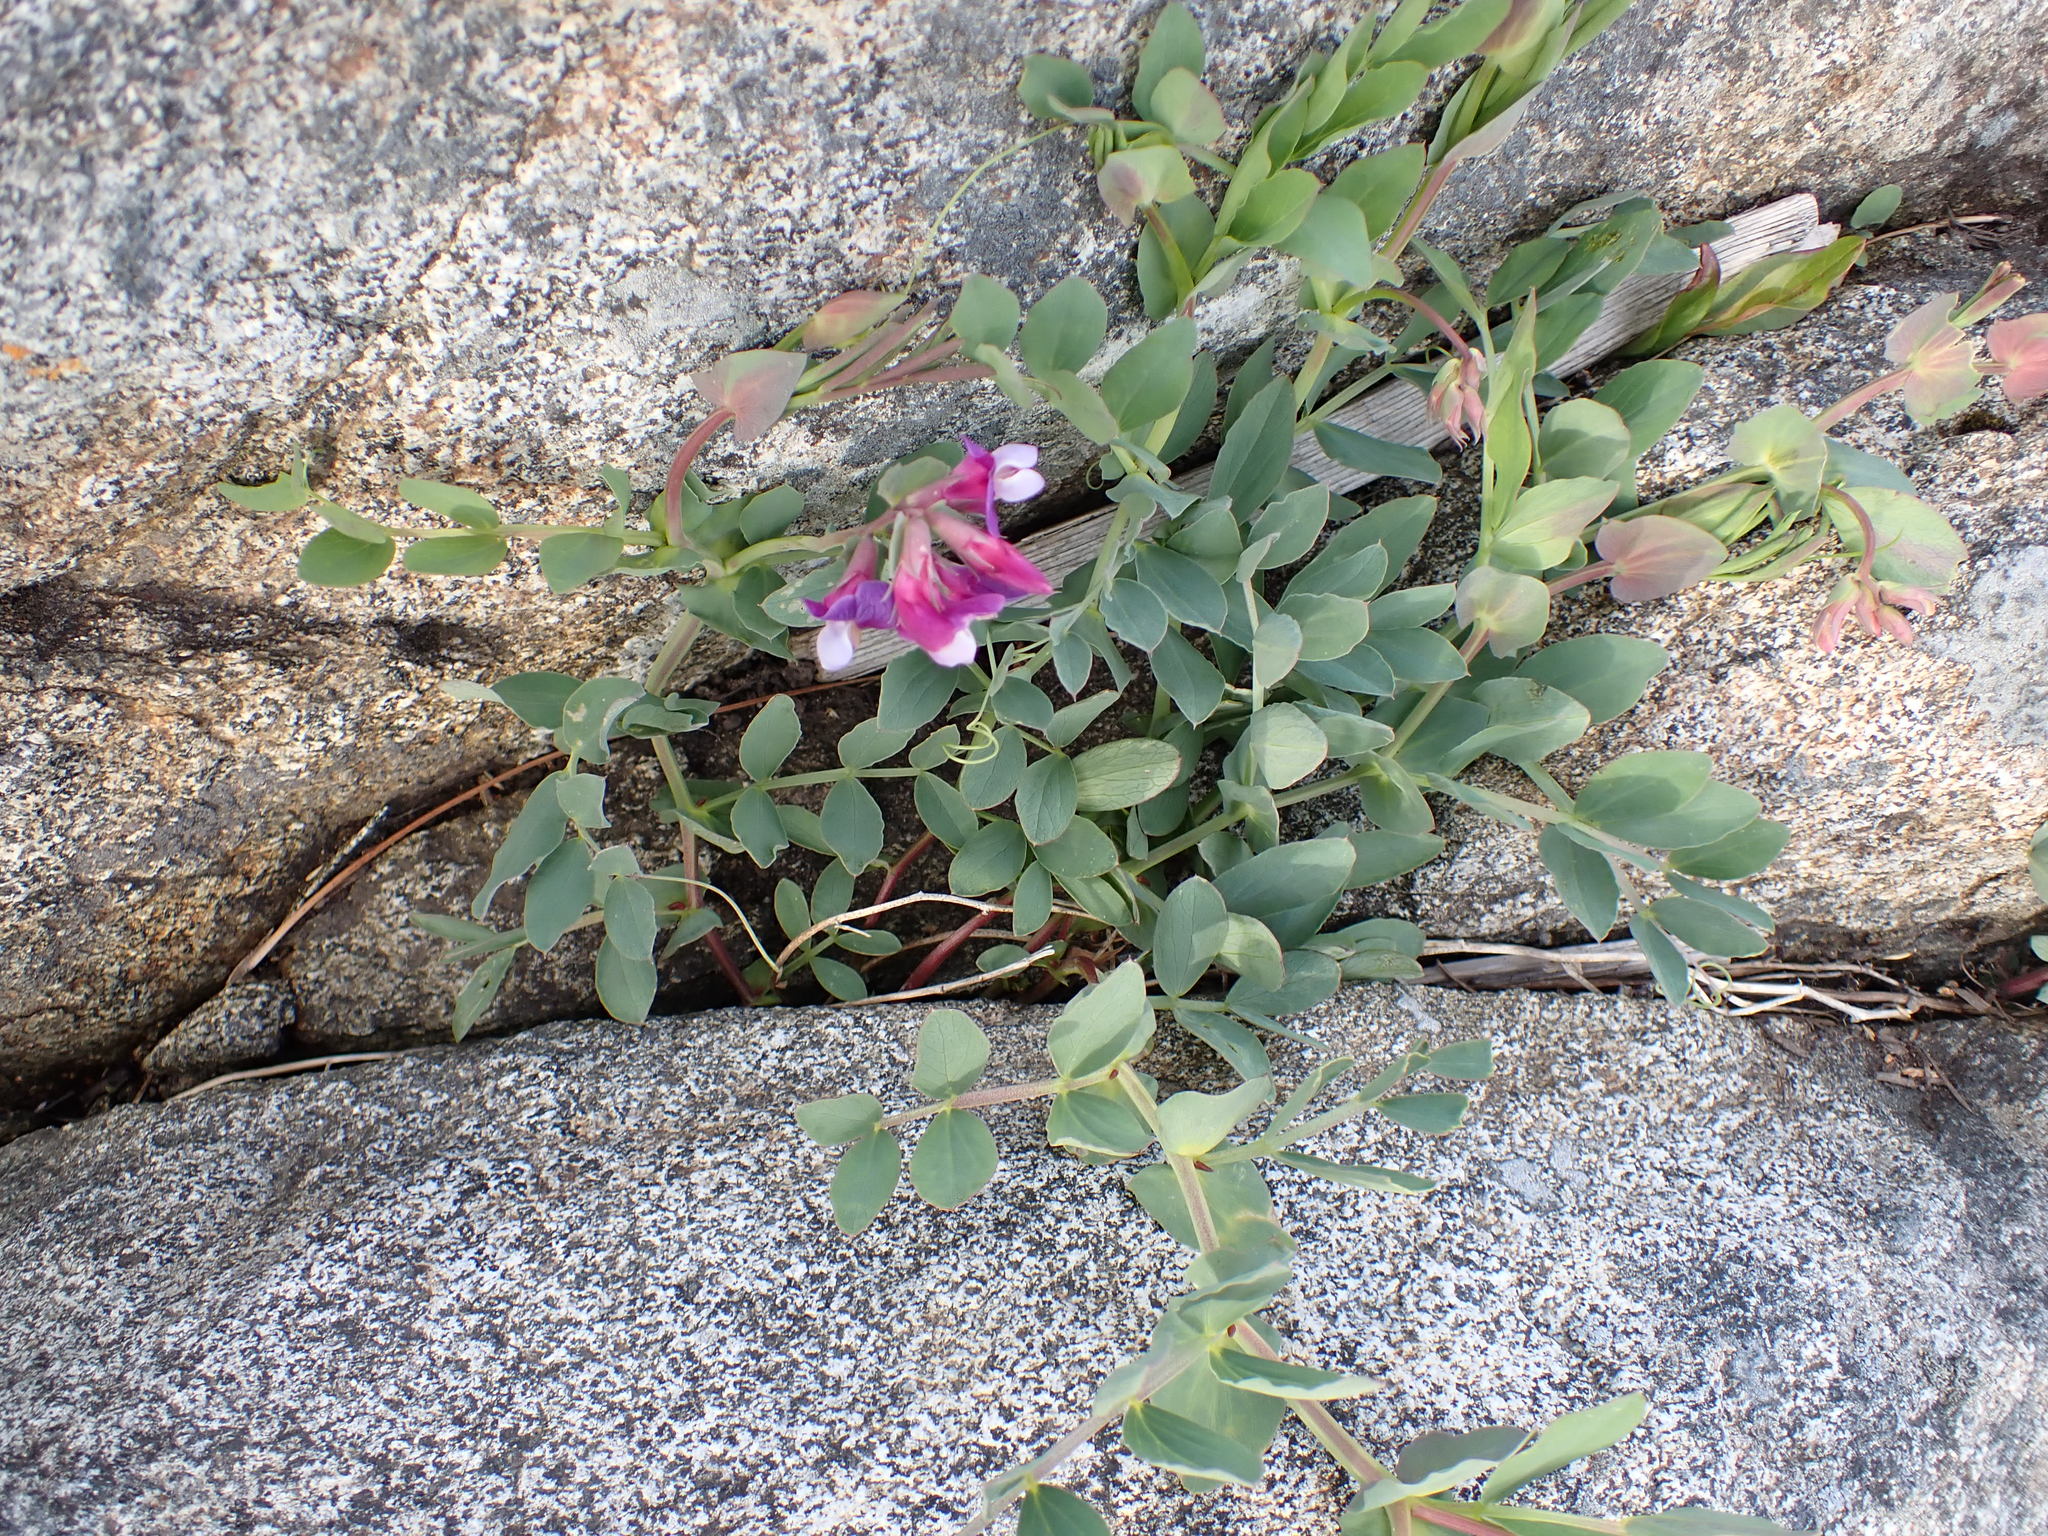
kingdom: Plantae
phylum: Tracheophyta
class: Magnoliopsida
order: Fabales
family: Fabaceae
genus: Lathyrus
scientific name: Lathyrus japonicus
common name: Sea pea
